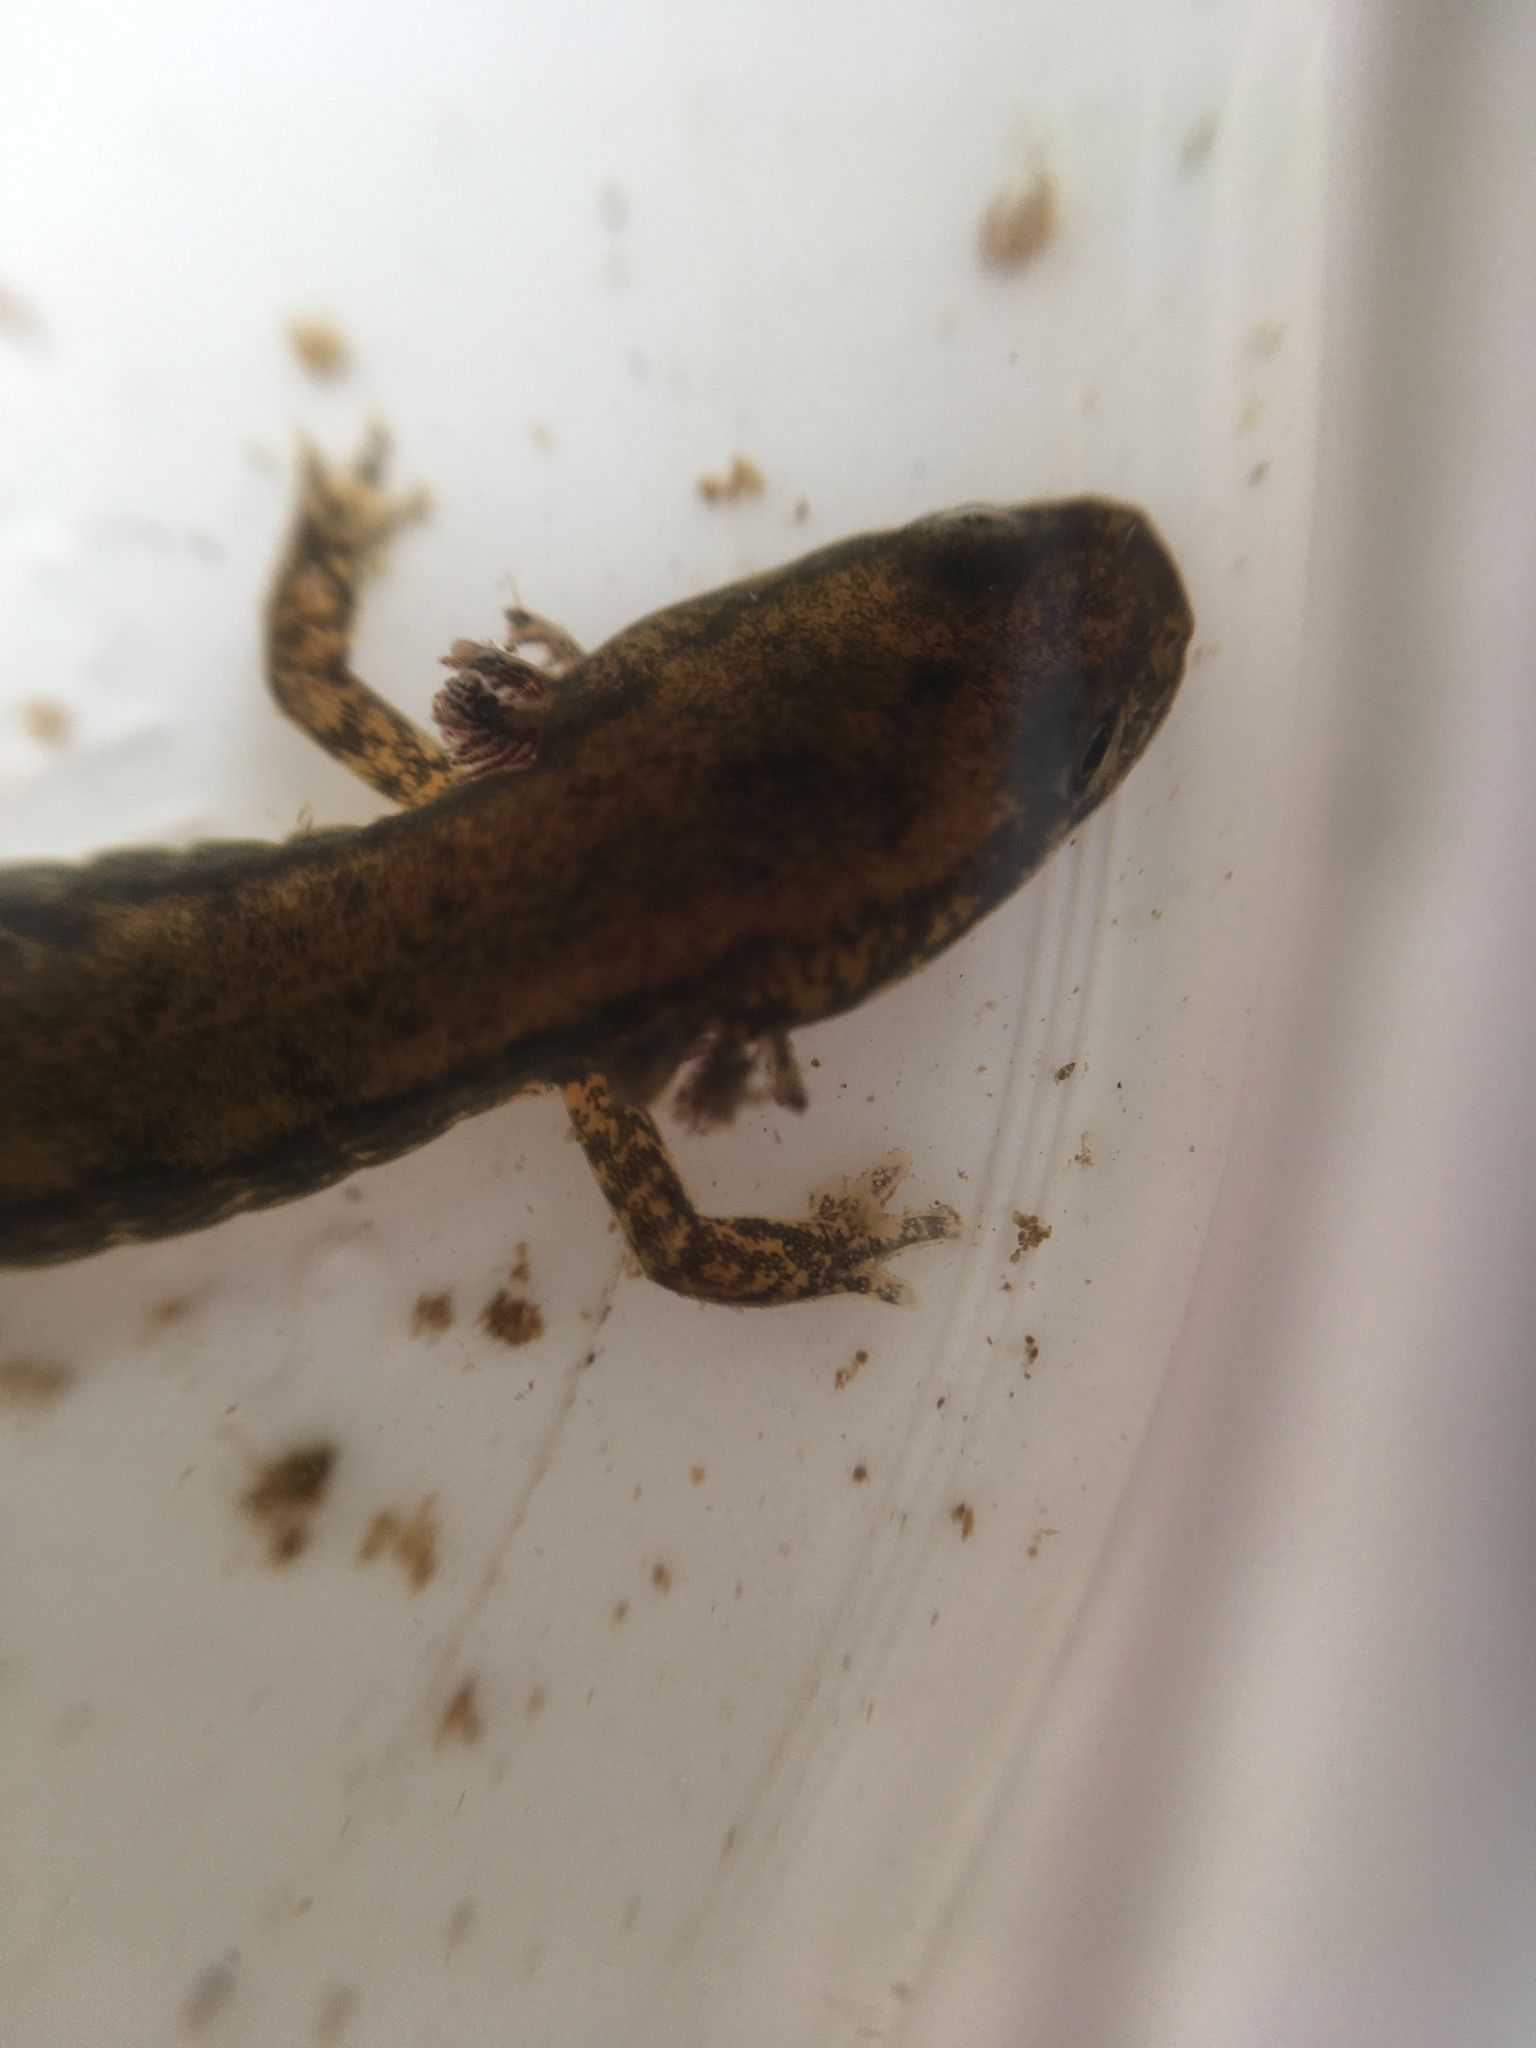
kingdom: Animalia
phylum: Chordata
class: Amphibia
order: Caudata
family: Plethodontidae
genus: Eurycea
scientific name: Eurycea bislineata
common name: Northern two-lined salamander
